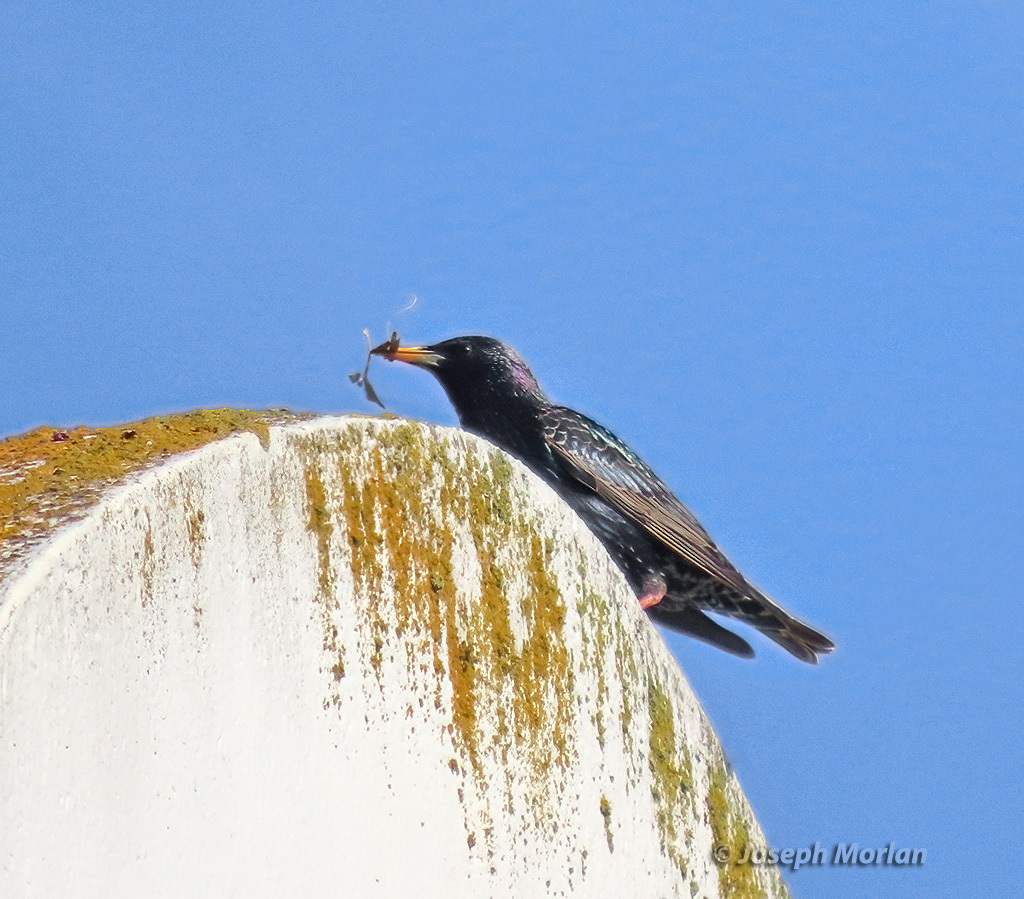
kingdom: Animalia
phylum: Chordata
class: Aves
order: Passeriformes
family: Sturnidae
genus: Sturnus
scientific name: Sturnus vulgaris
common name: Common starling
